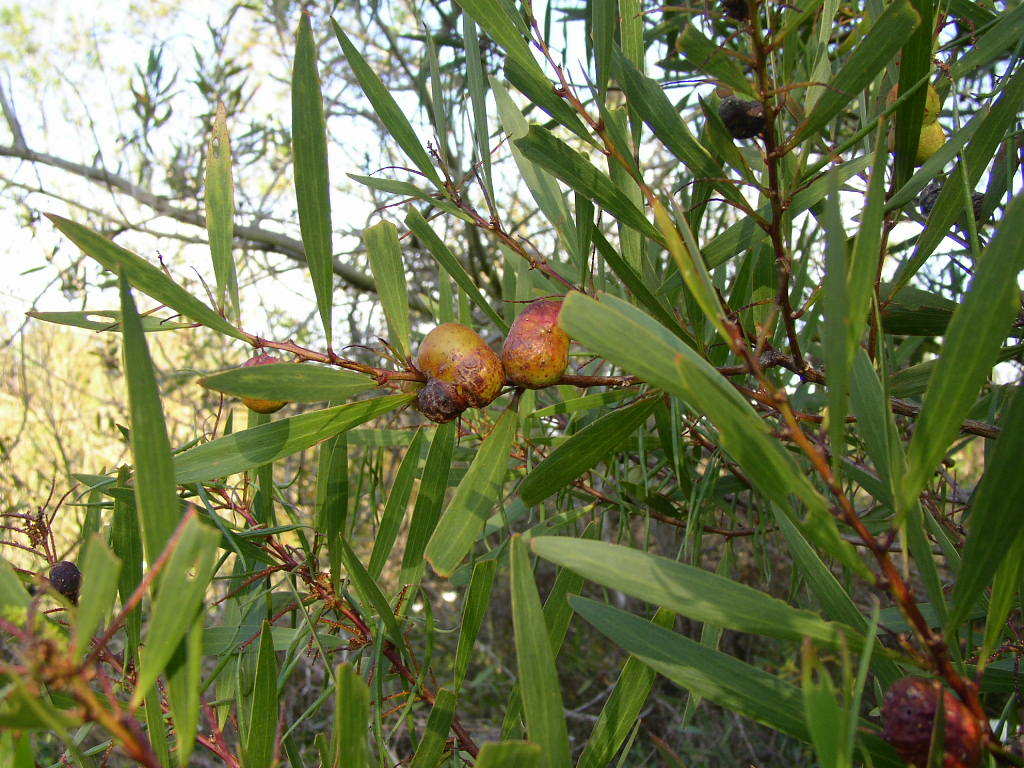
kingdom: Animalia
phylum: Arthropoda
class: Insecta
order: Hymenoptera
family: Pteromalidae
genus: Trichilogaster
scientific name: Trichilogaster acaciaelongifoliae
